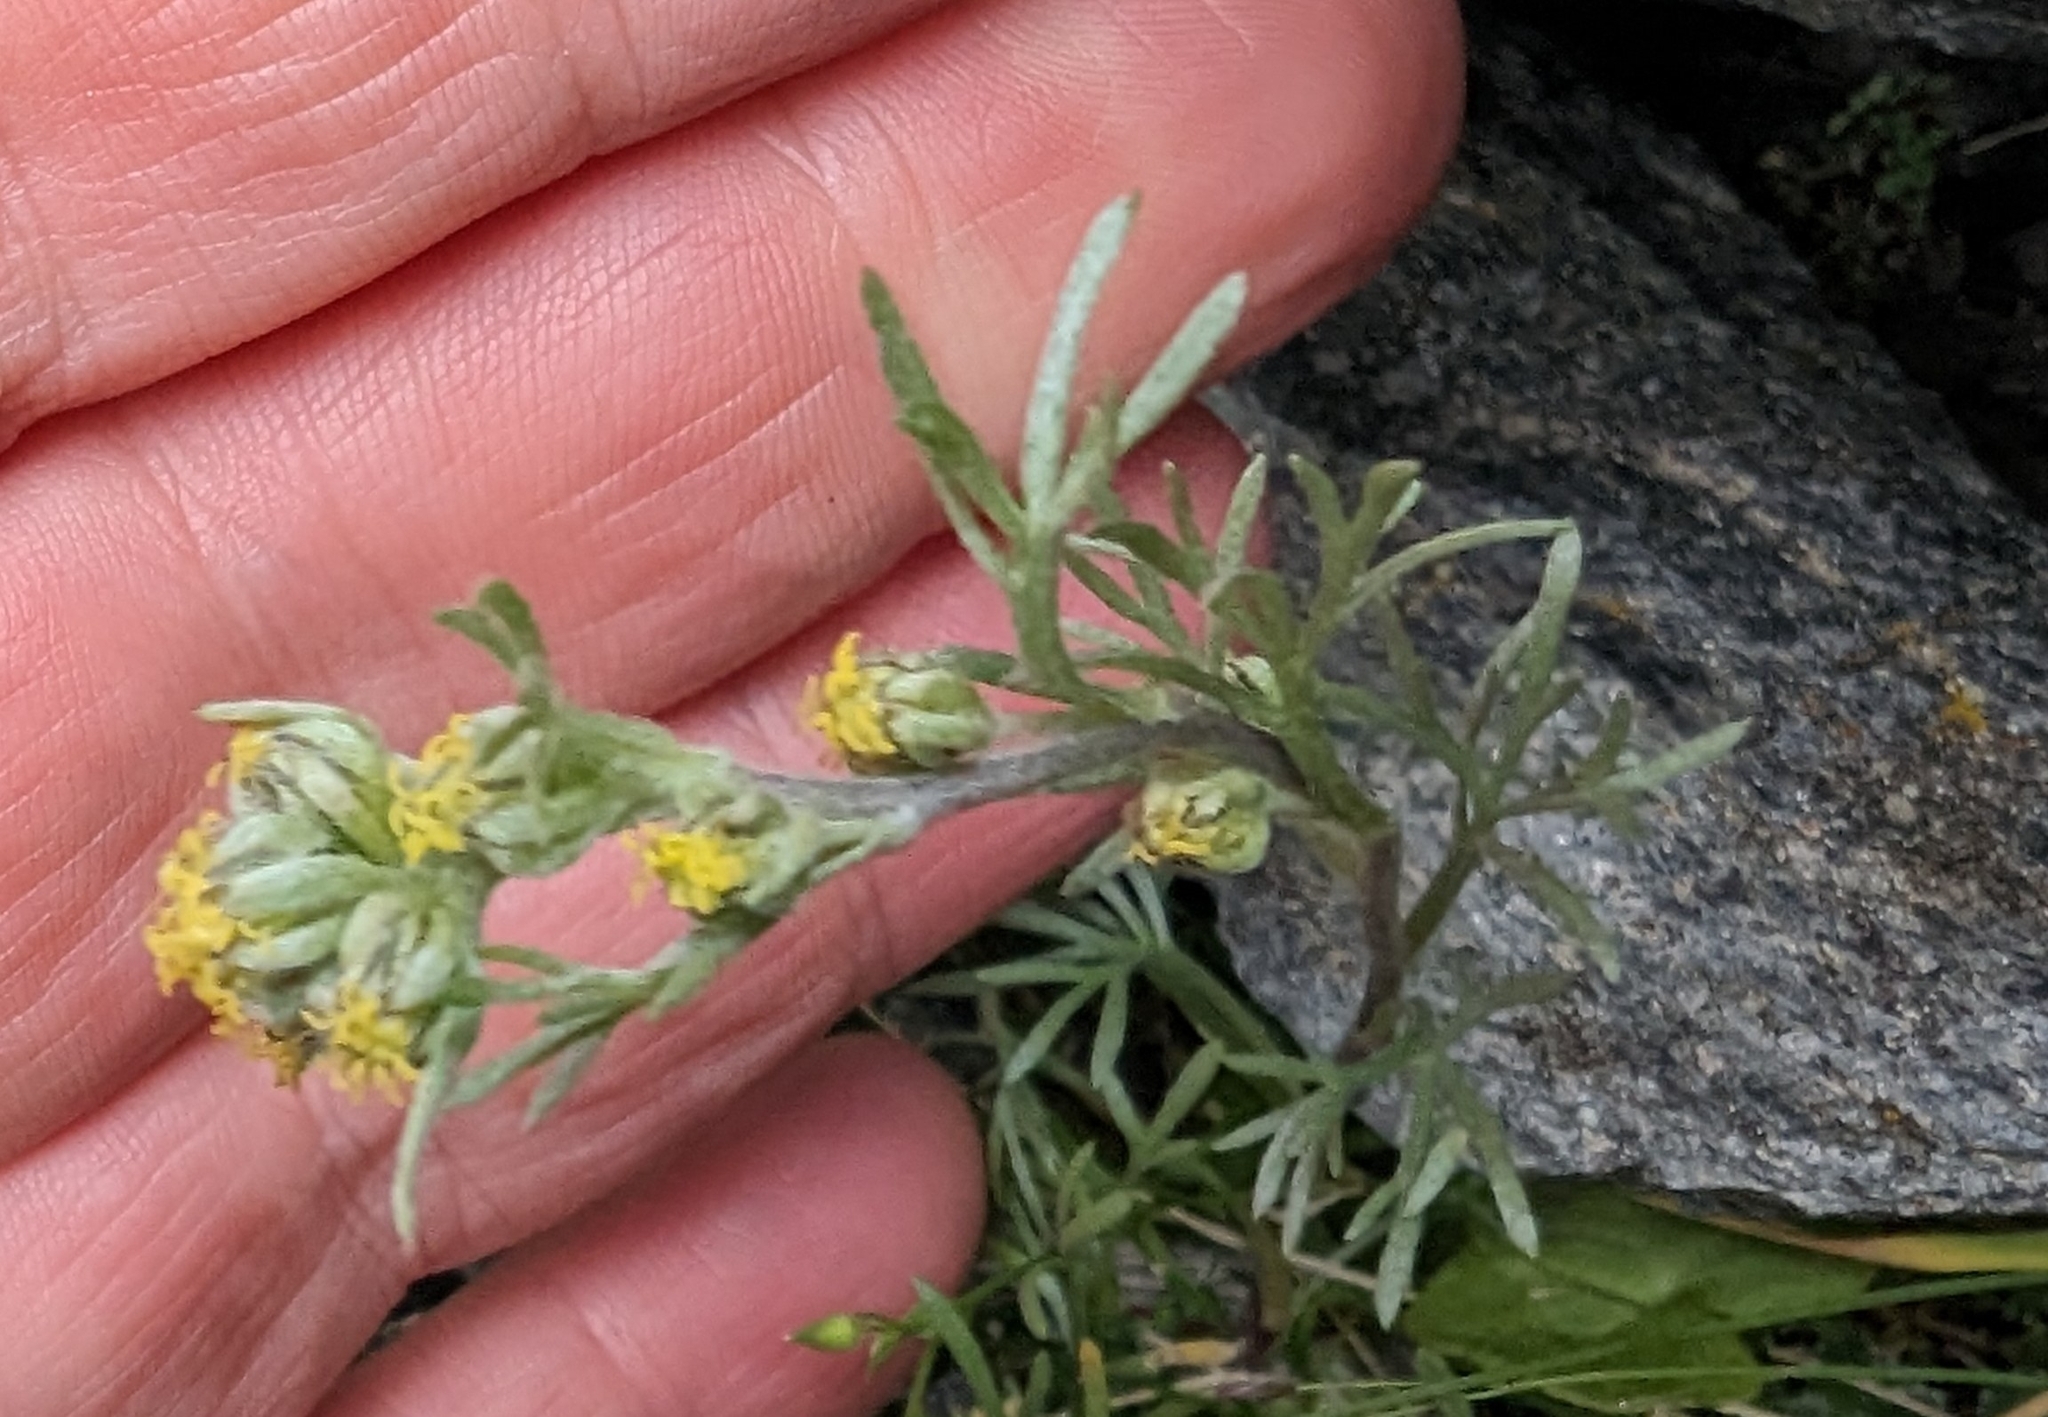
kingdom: Plantae
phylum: Tracheophyta
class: Magnoliopsida
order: Asterales
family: Asteraceae
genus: Artemisia
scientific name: Artemisia umbelliformis
